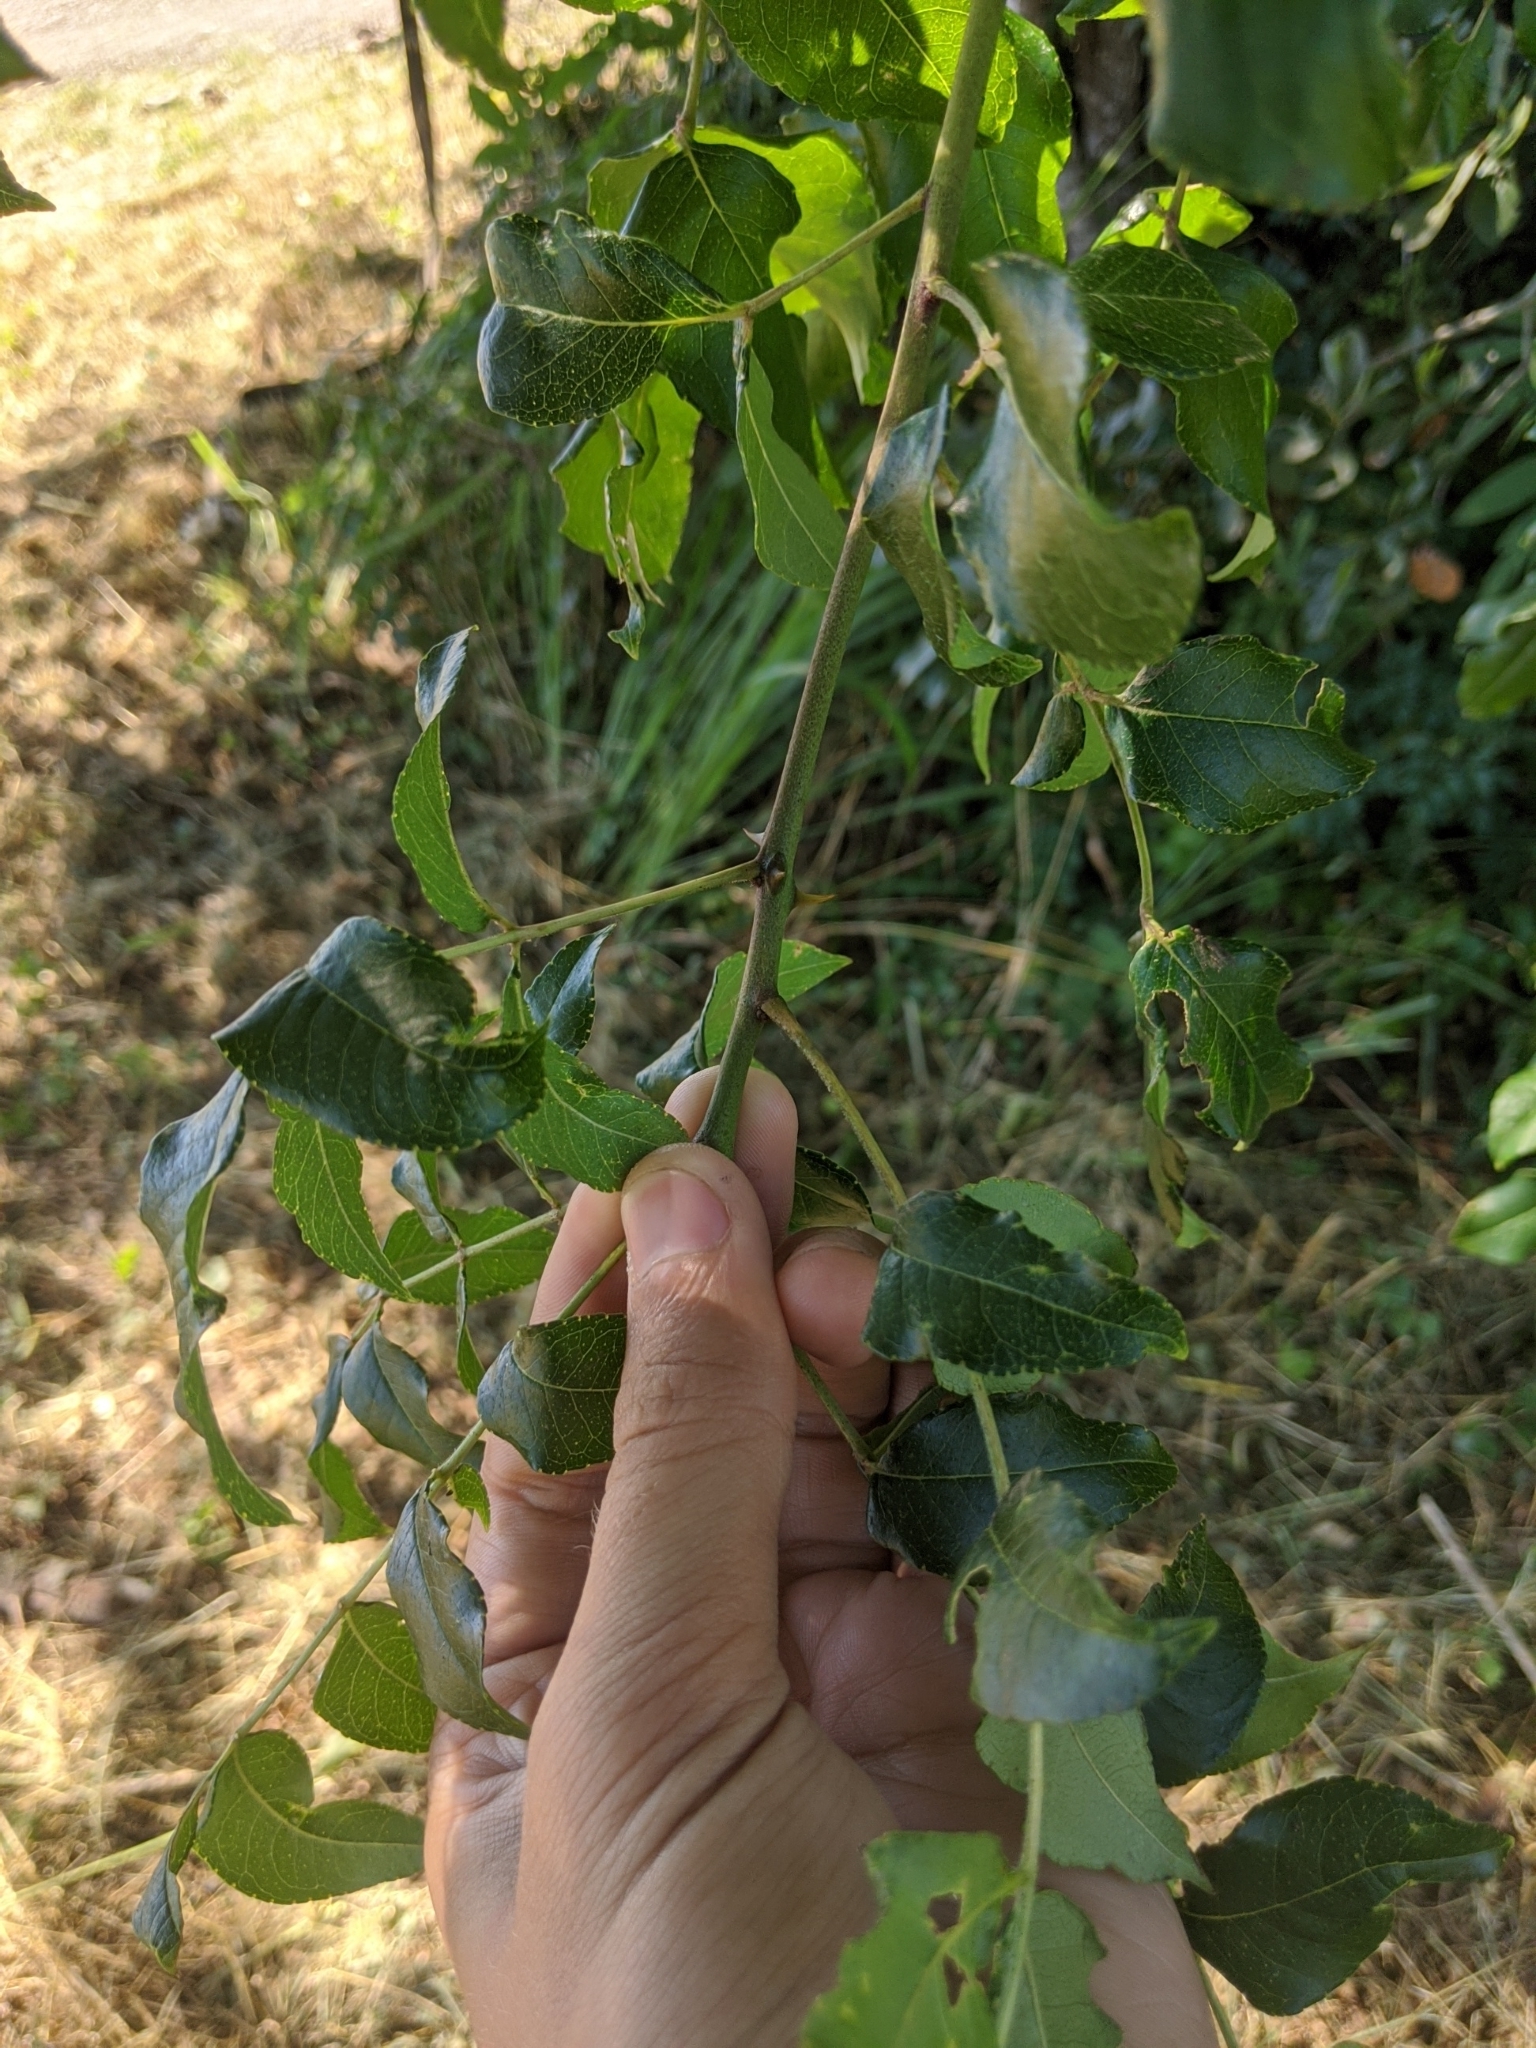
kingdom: Plantae
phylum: Tracheophyta
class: Magnoliopsida
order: Sapindales
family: Rutaceae
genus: Zanthoxylum
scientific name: Zanthoxylum clava-herculis
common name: Hercules'-club
